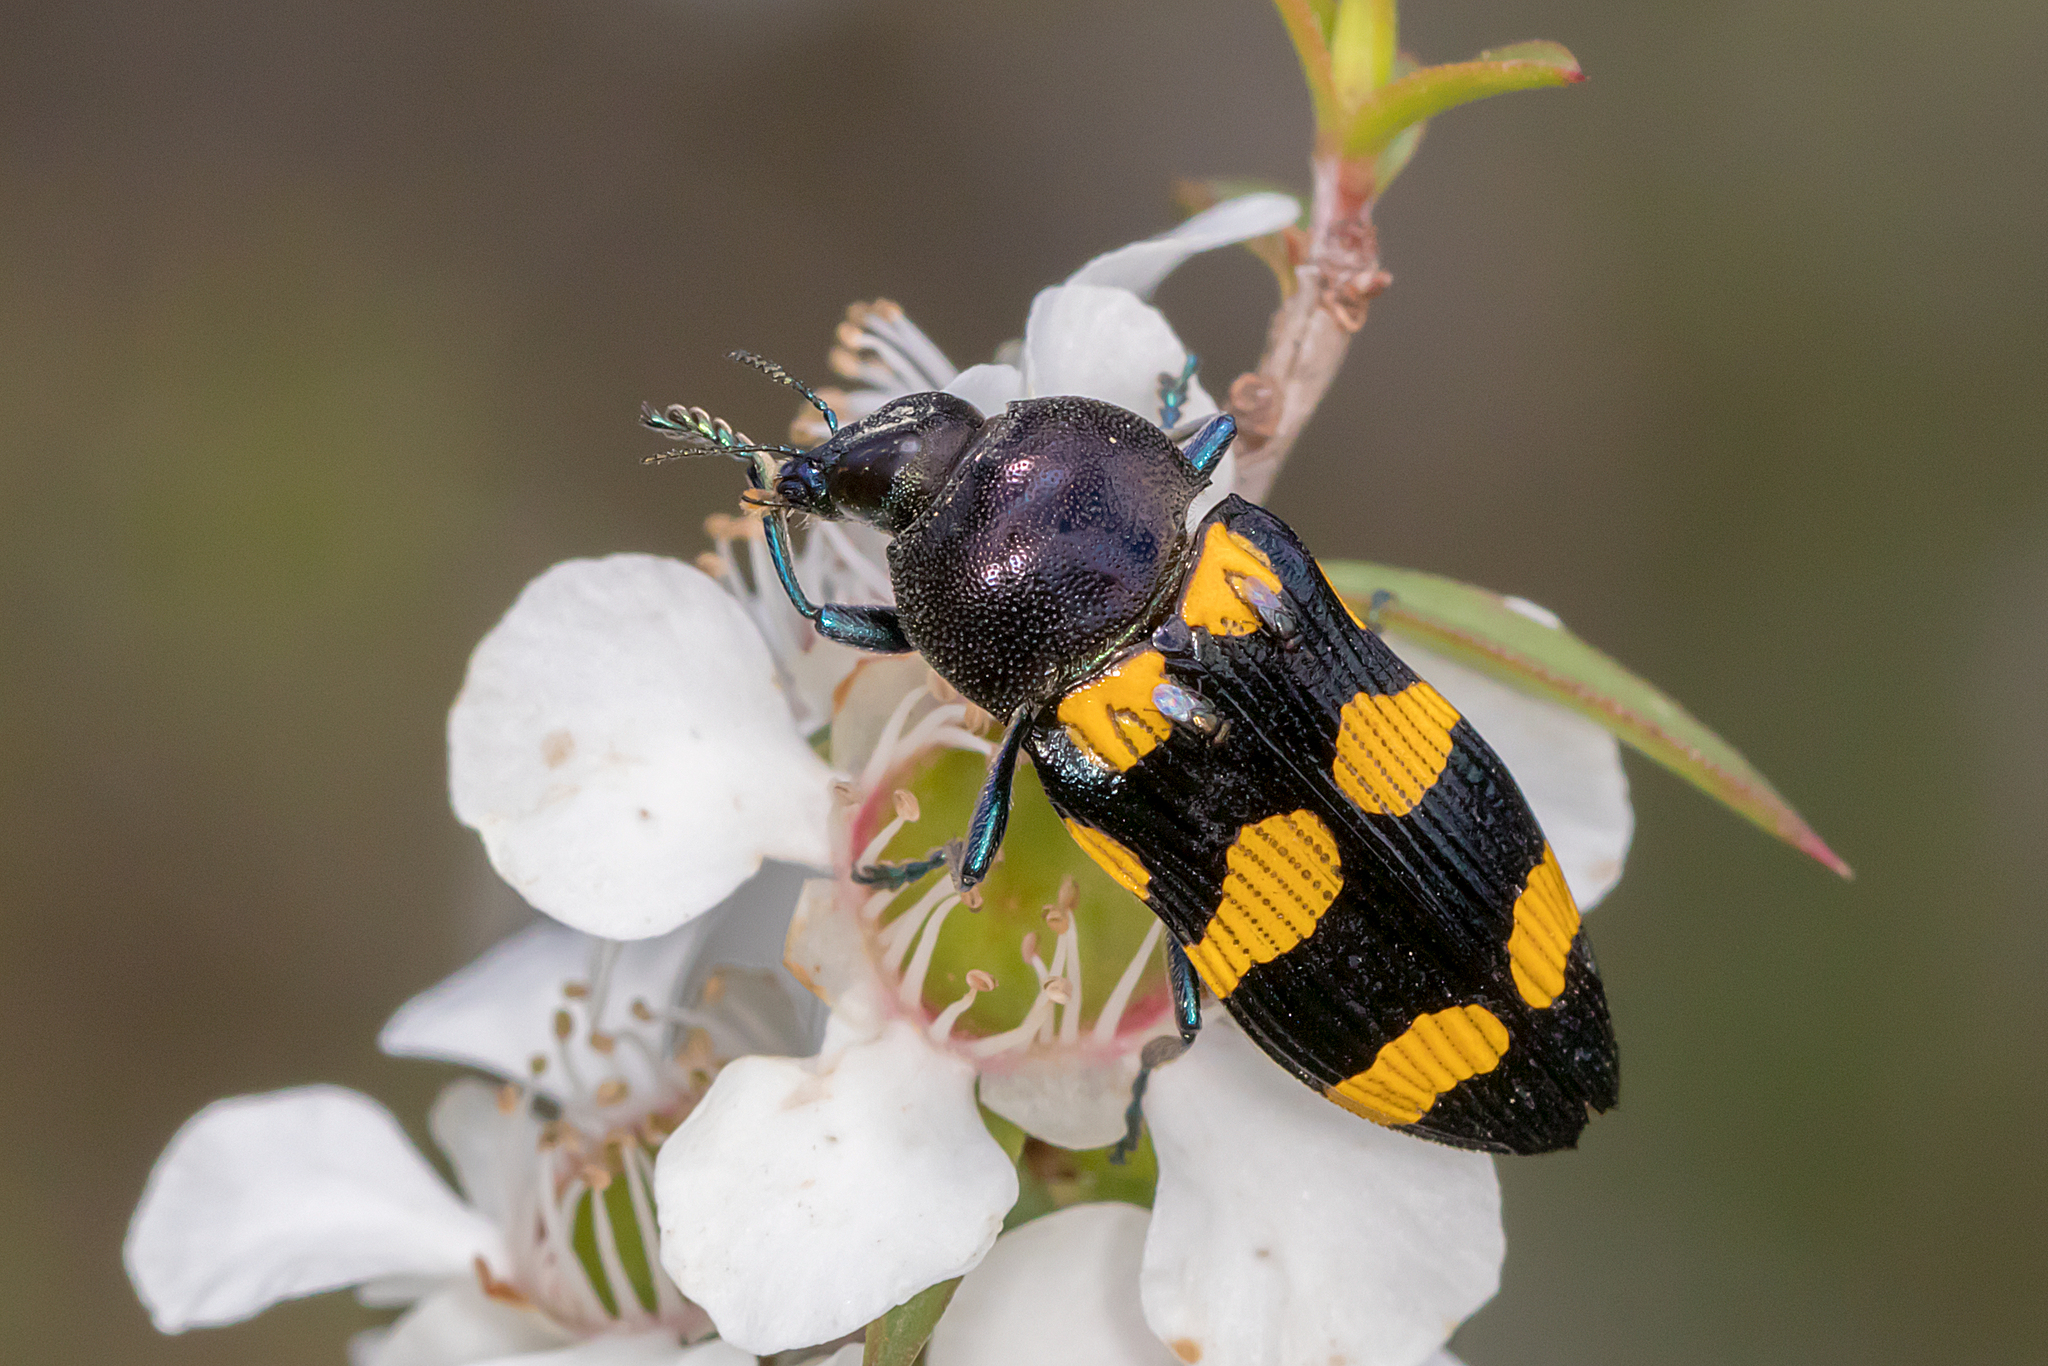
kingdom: Animalia
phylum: Arthropoda
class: Insecta
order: Coleoptera
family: Buprestidae
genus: Castiarina
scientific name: Castiarina australasiae
